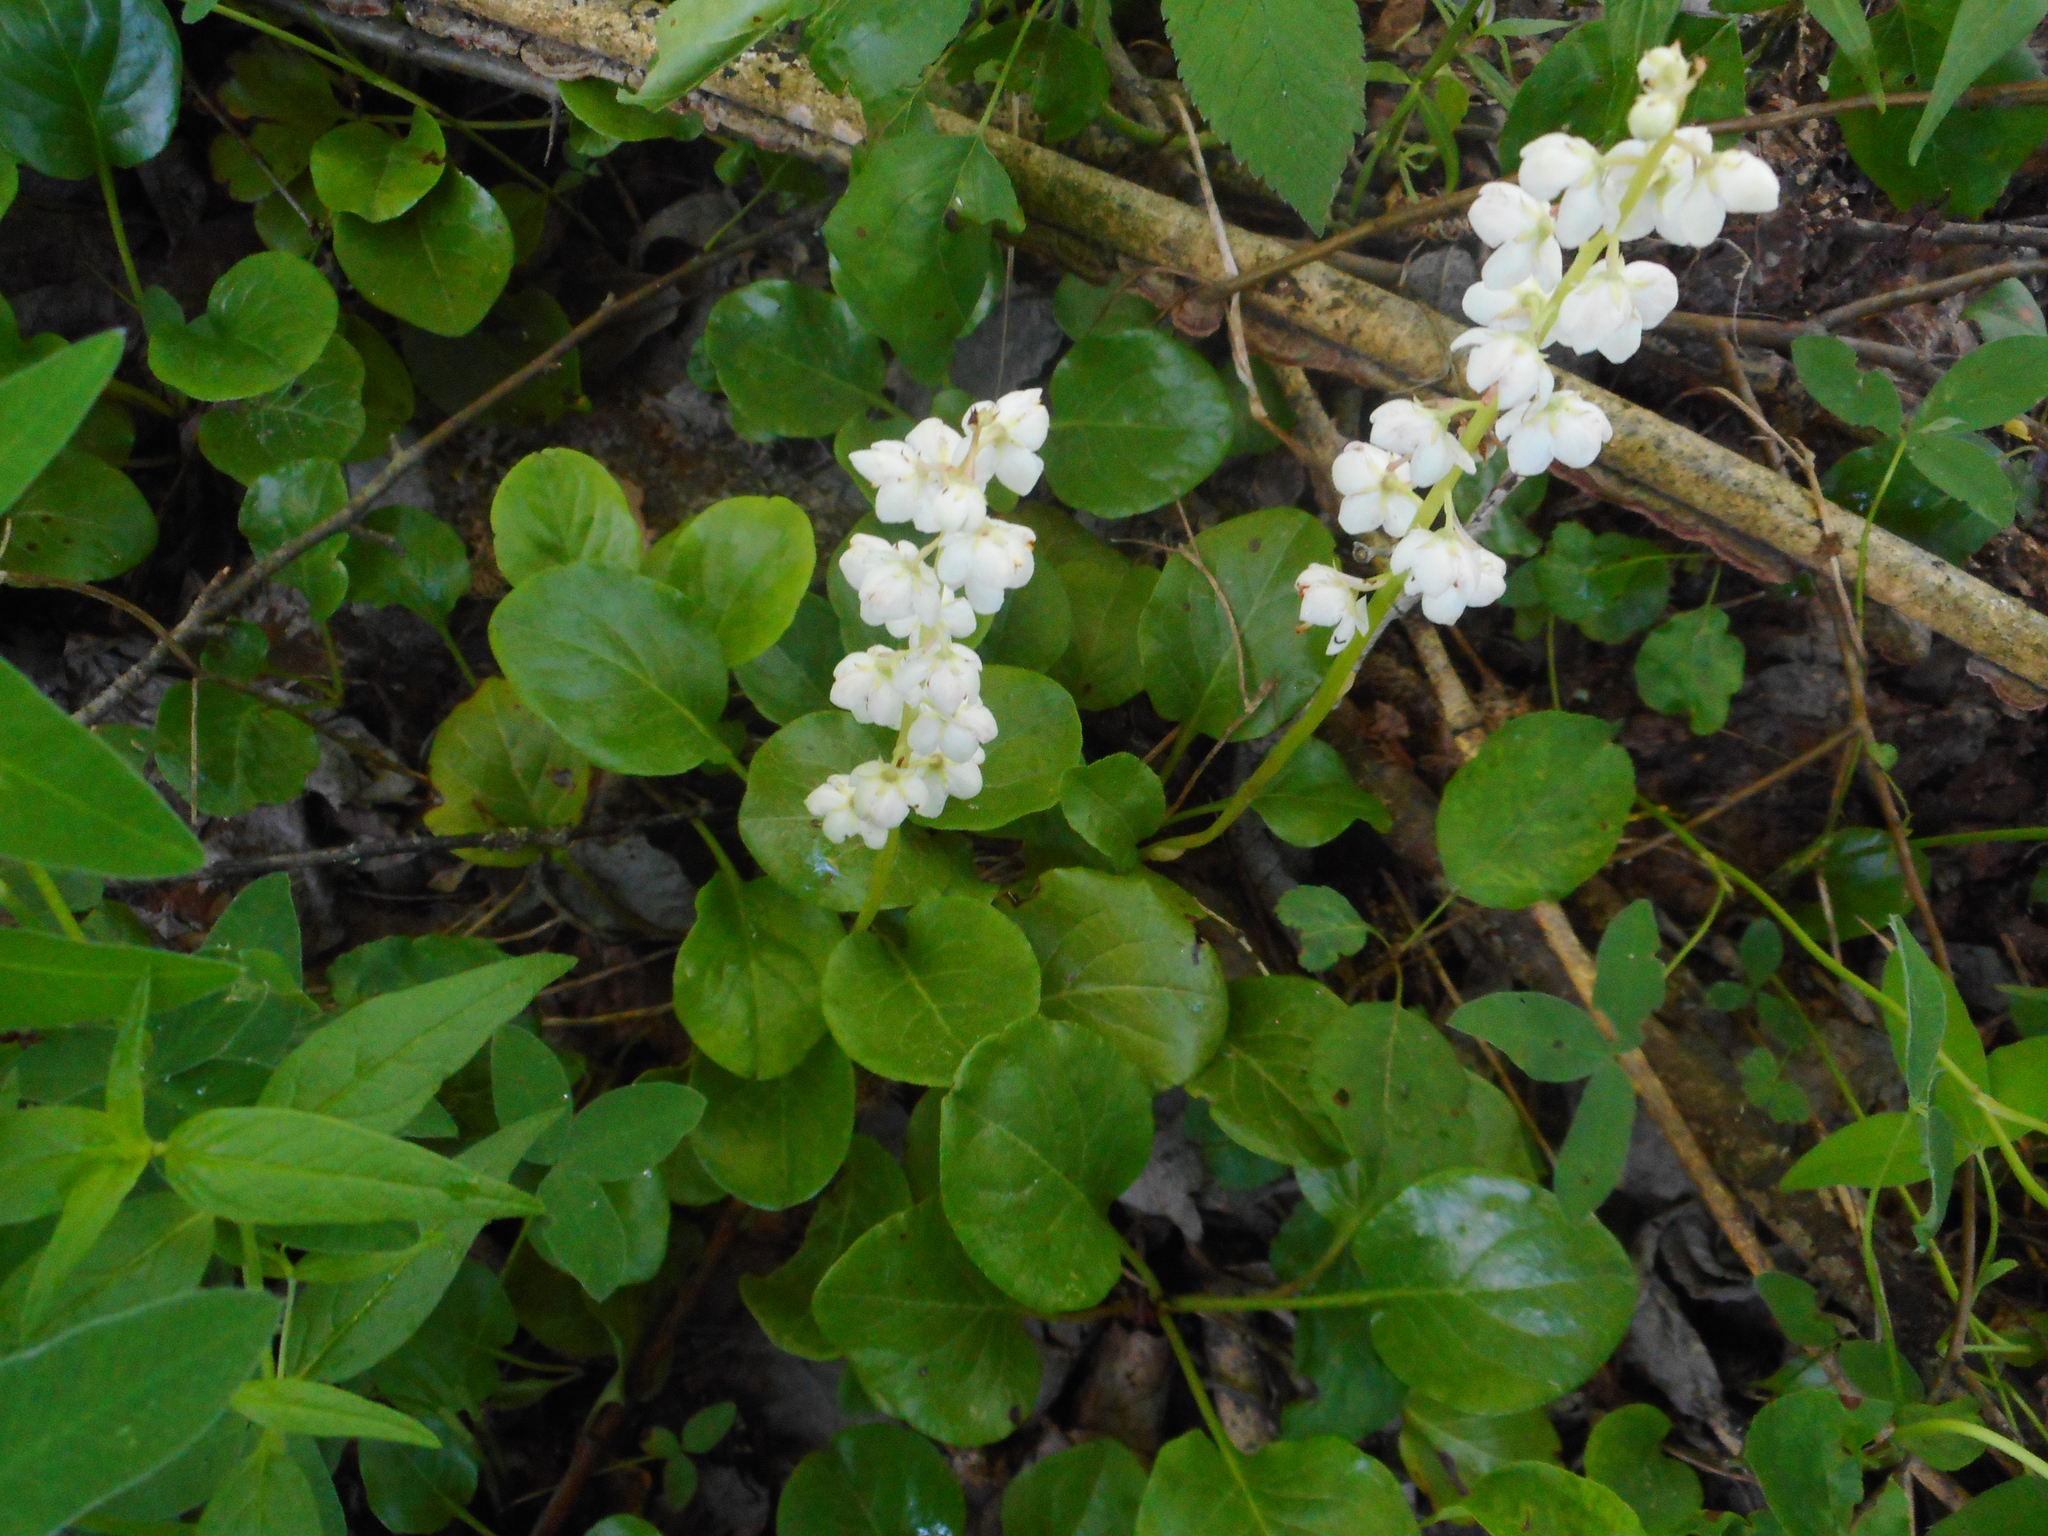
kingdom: Plantae
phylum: Tracheophyta
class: Magnoliopsida
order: Ericales
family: Ericaceae
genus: Pyrola
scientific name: Pyrola rotundifolia
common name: Round-leaved wintergreen
